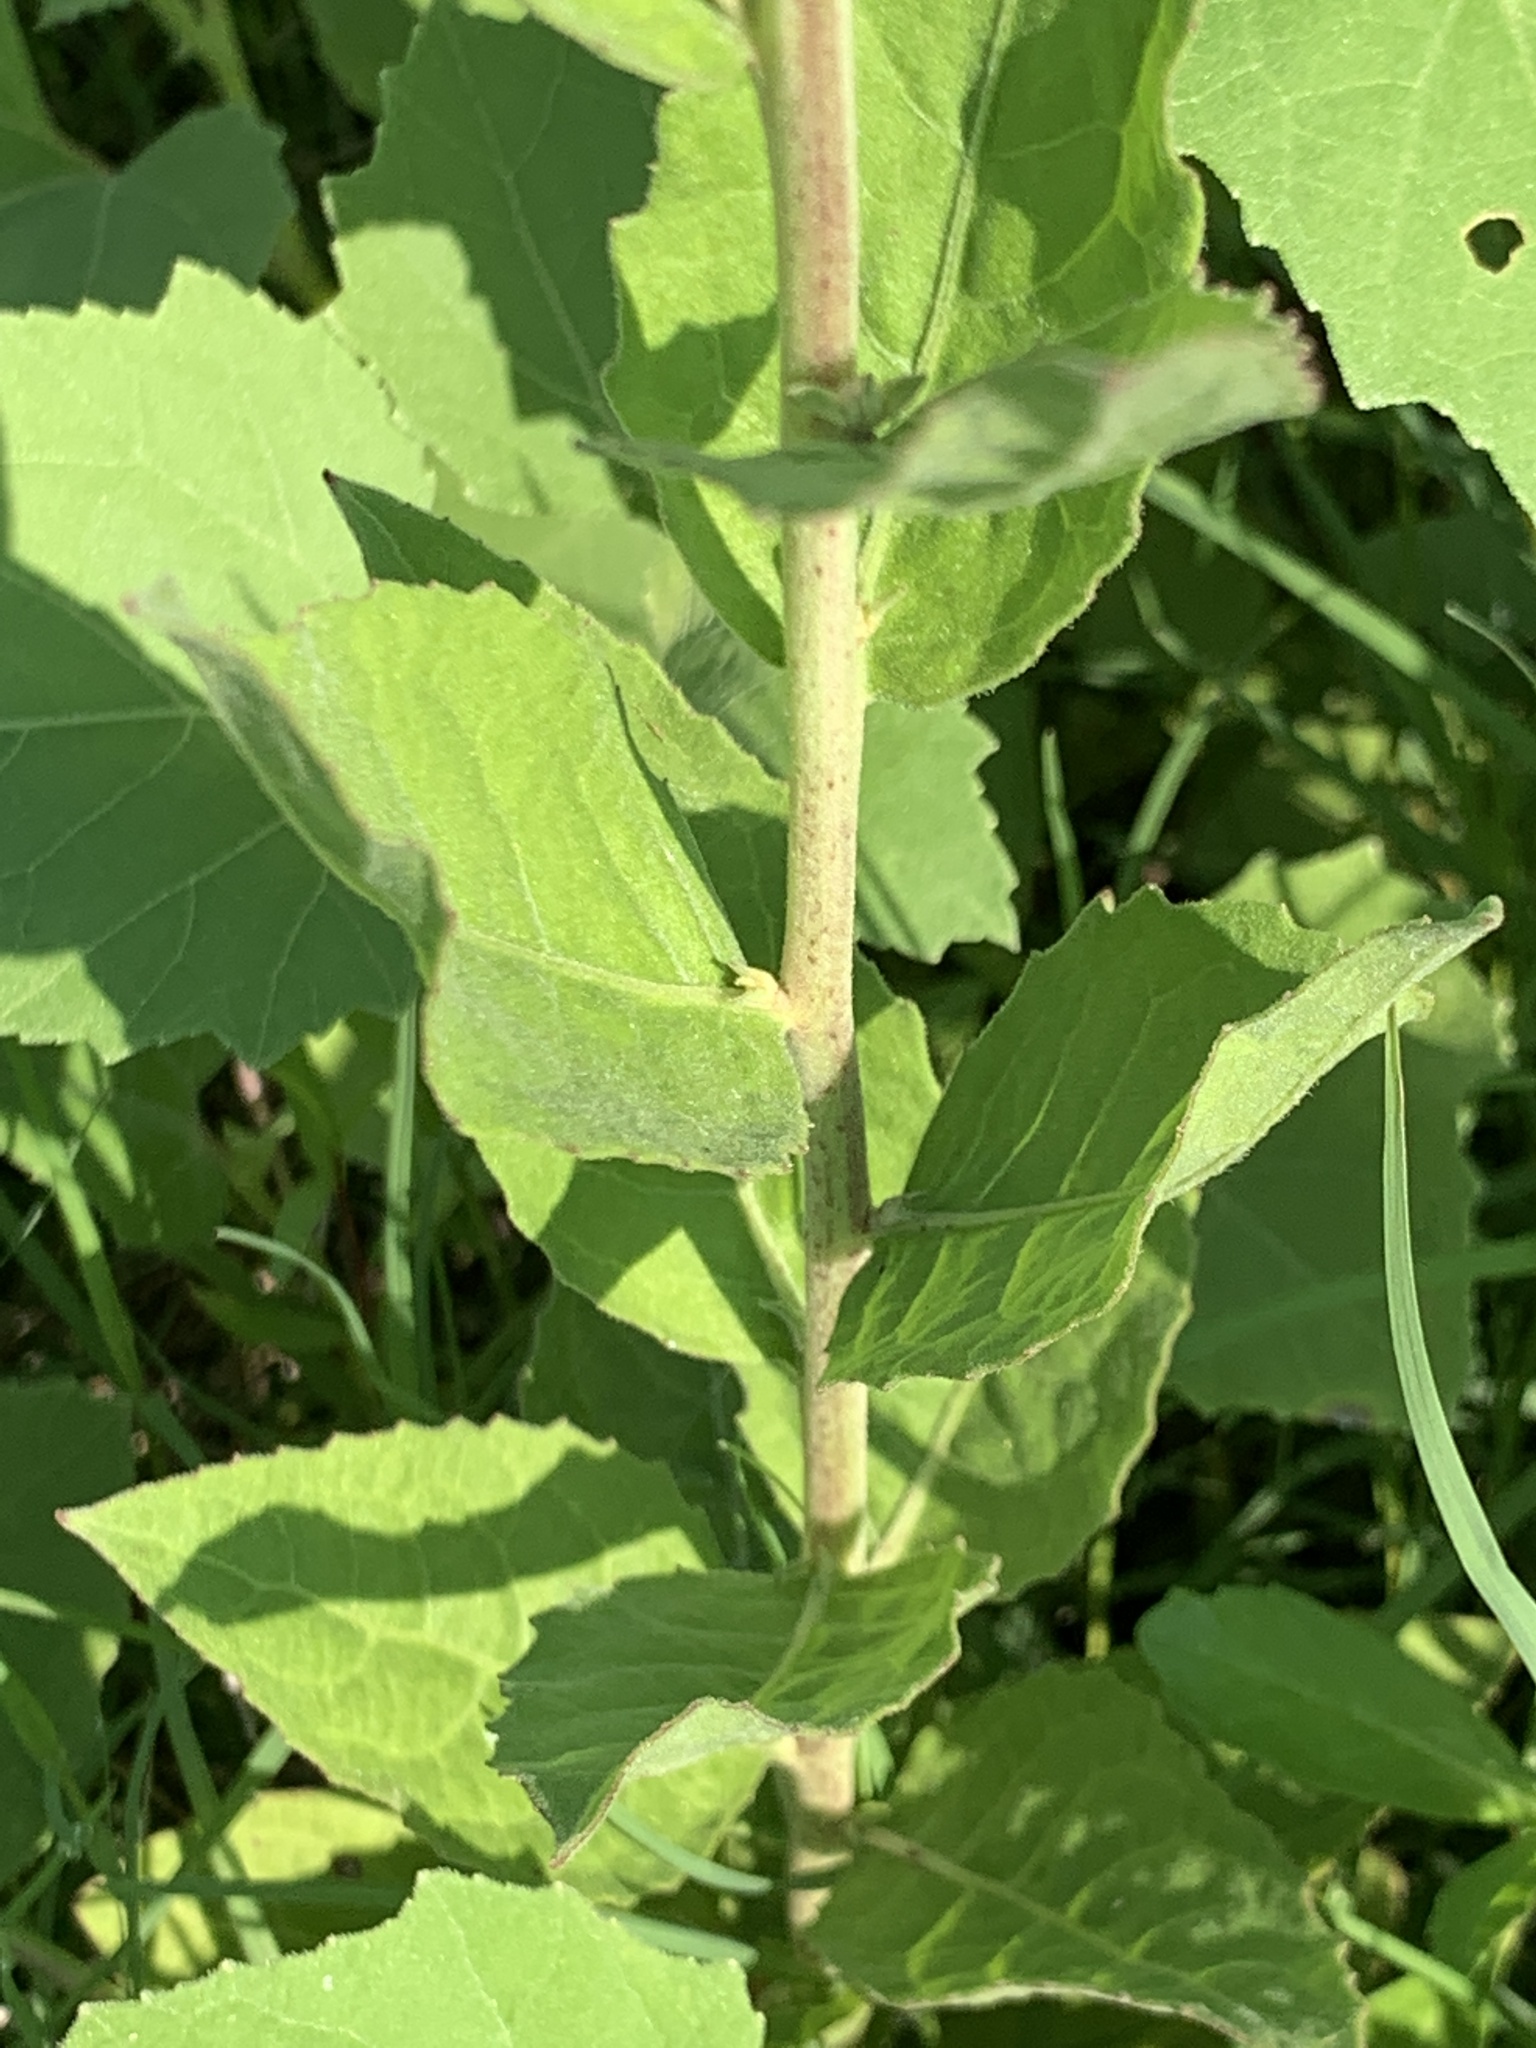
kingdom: Plantae
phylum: Tracheophyta
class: Magnoliopsida
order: Asterales
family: Asteraceae
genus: Pluchea
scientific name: Pluchea odorata
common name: Saltmarsh fleabane
